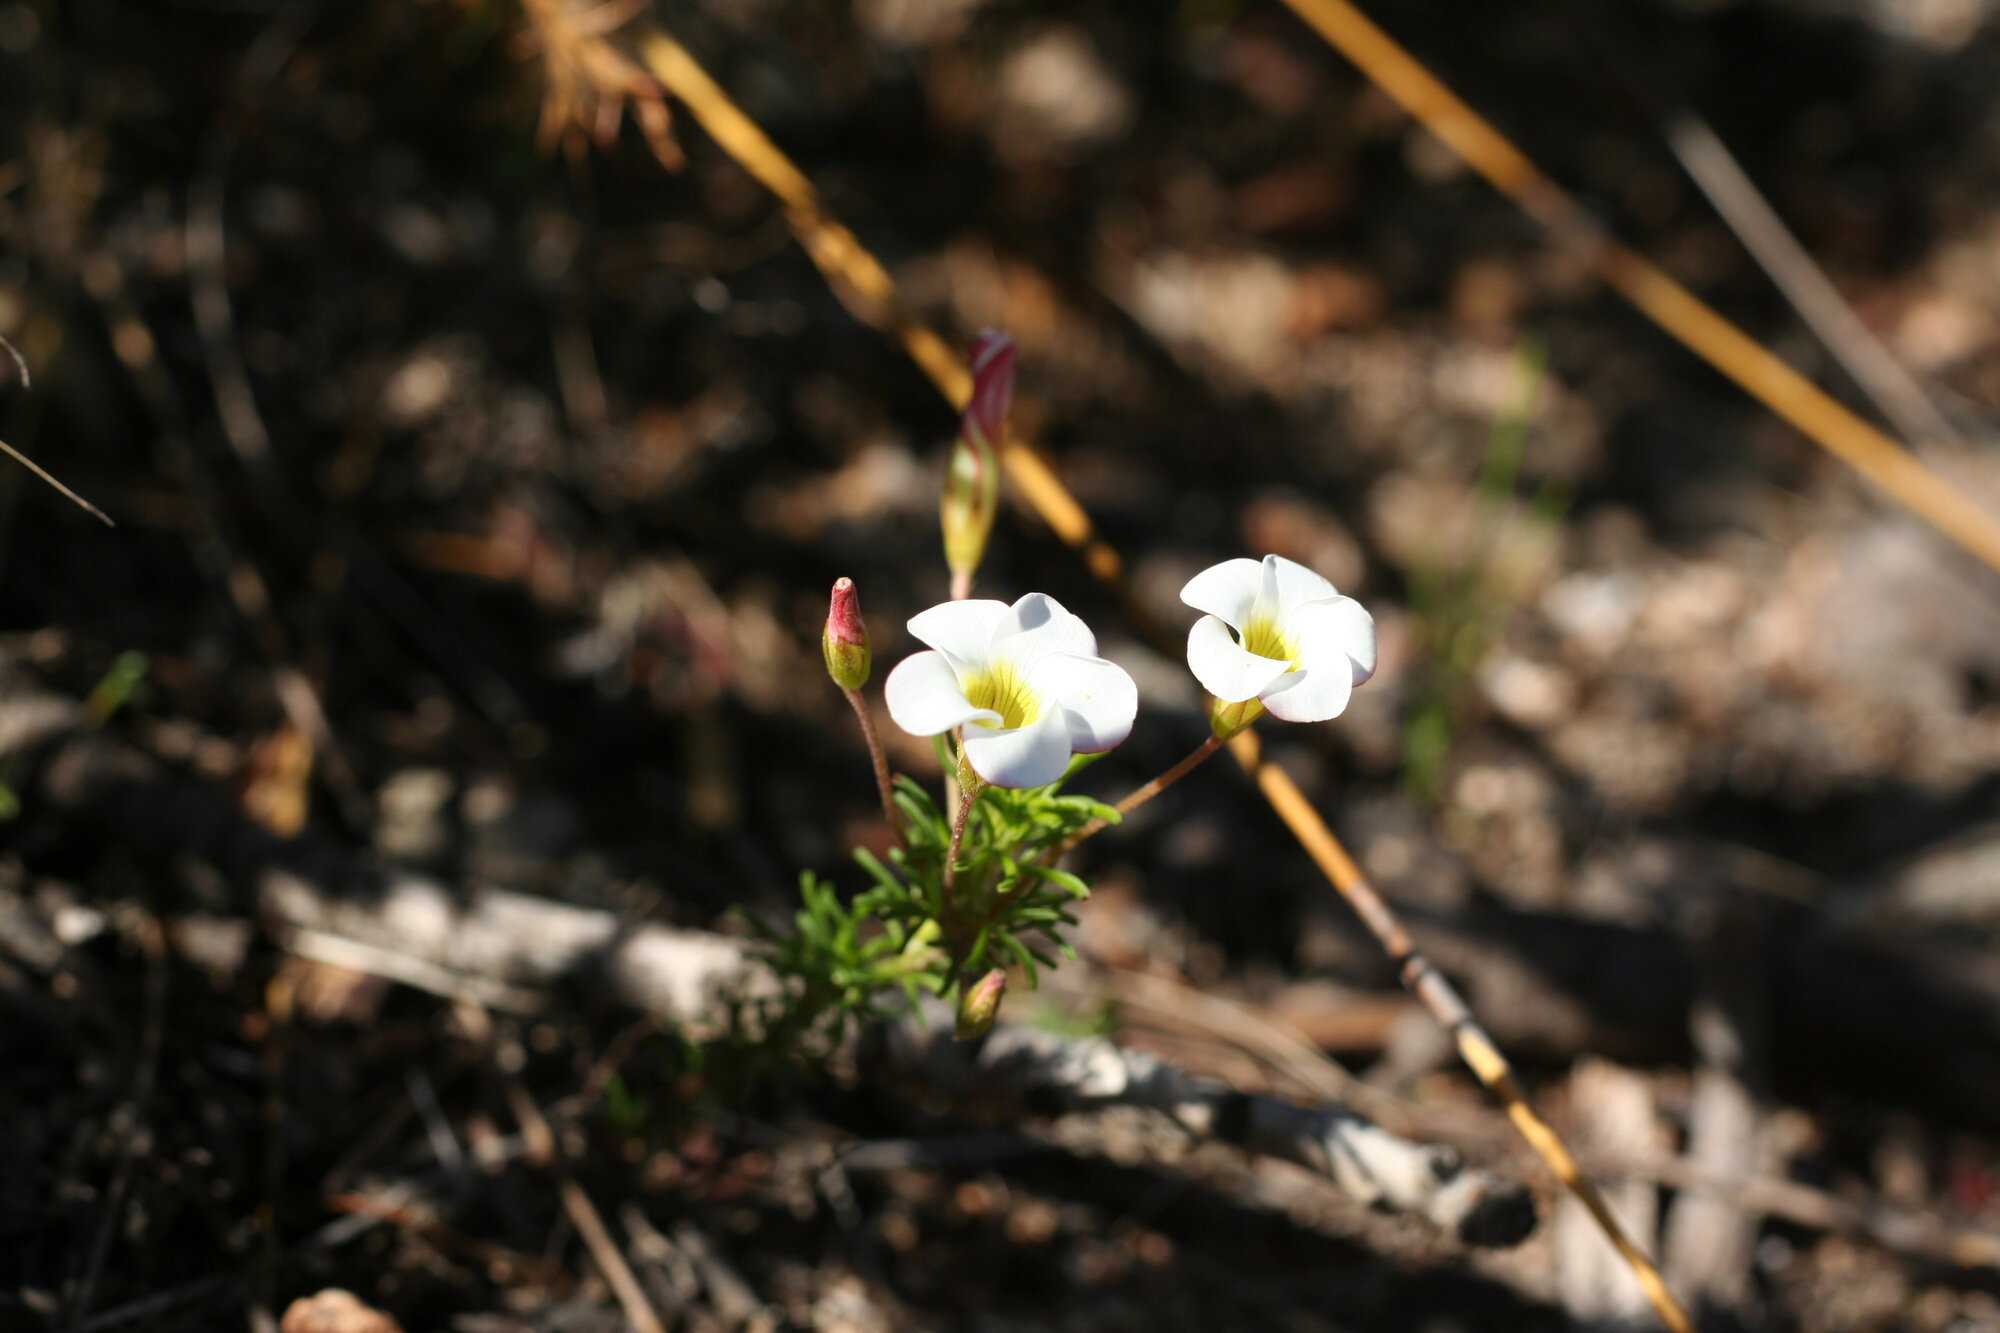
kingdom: Plantae
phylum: Tracheophyta
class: Magnoliopsida
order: Oxalidales
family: Oxalidaceae
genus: Oxalis
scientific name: Oxalis tenuifolia
